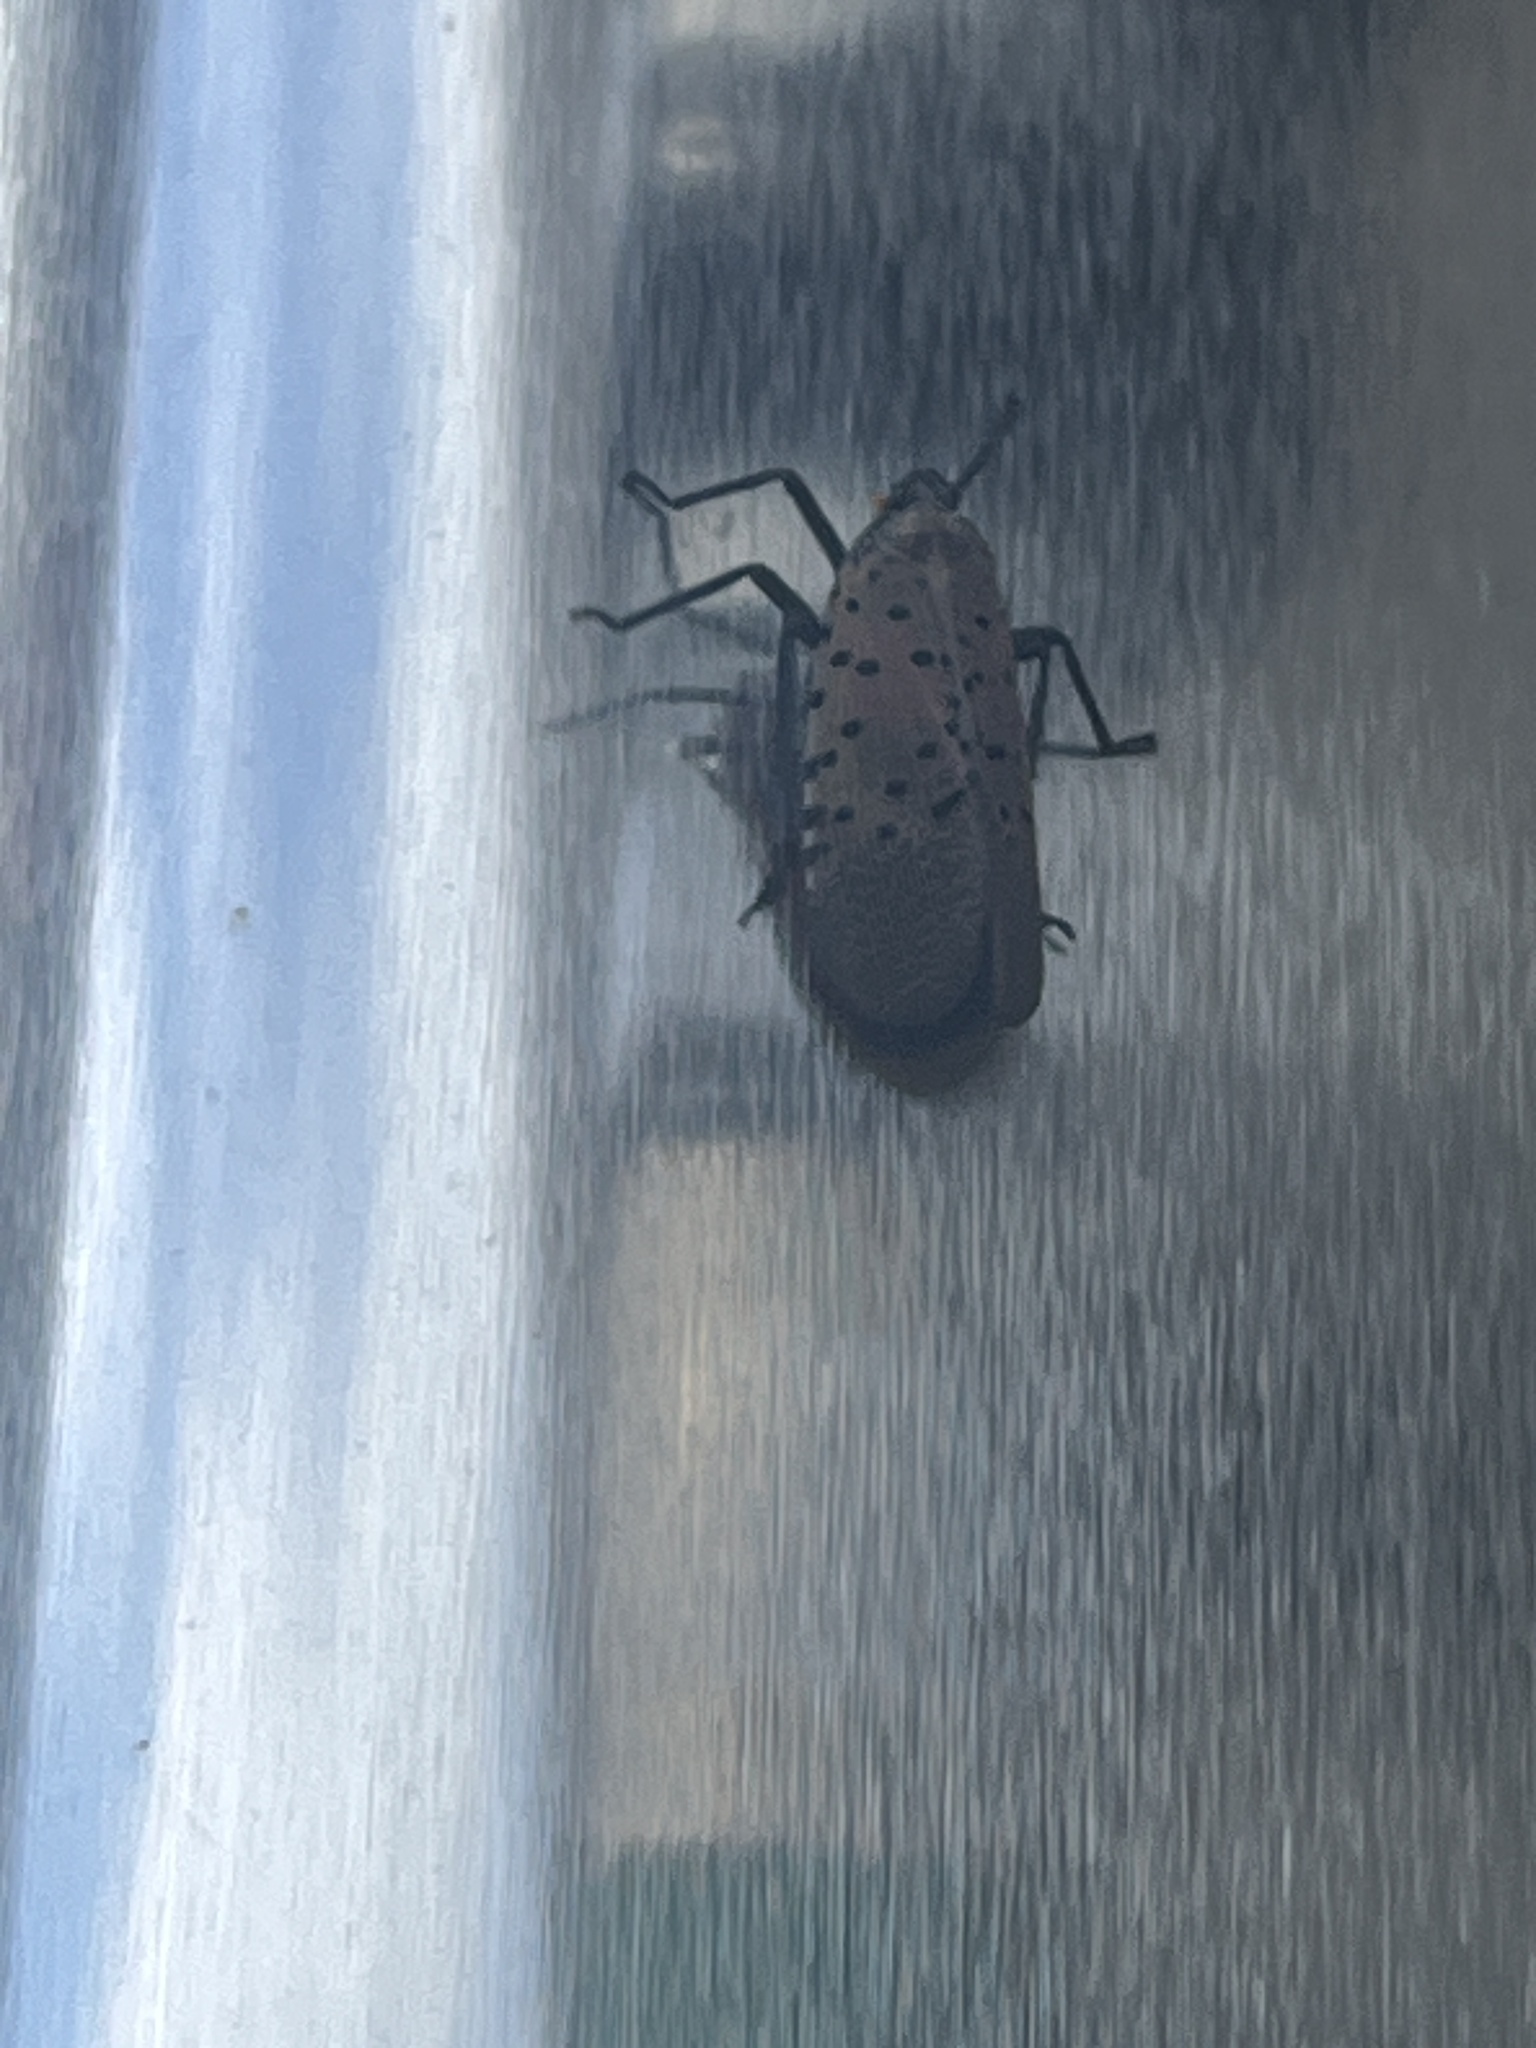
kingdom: Animalia
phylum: Arthropoda
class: Insecta
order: Hemiptera
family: Fulgoridae
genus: Lycorma
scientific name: Lycorma delicatula
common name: Spotted lanternfly
